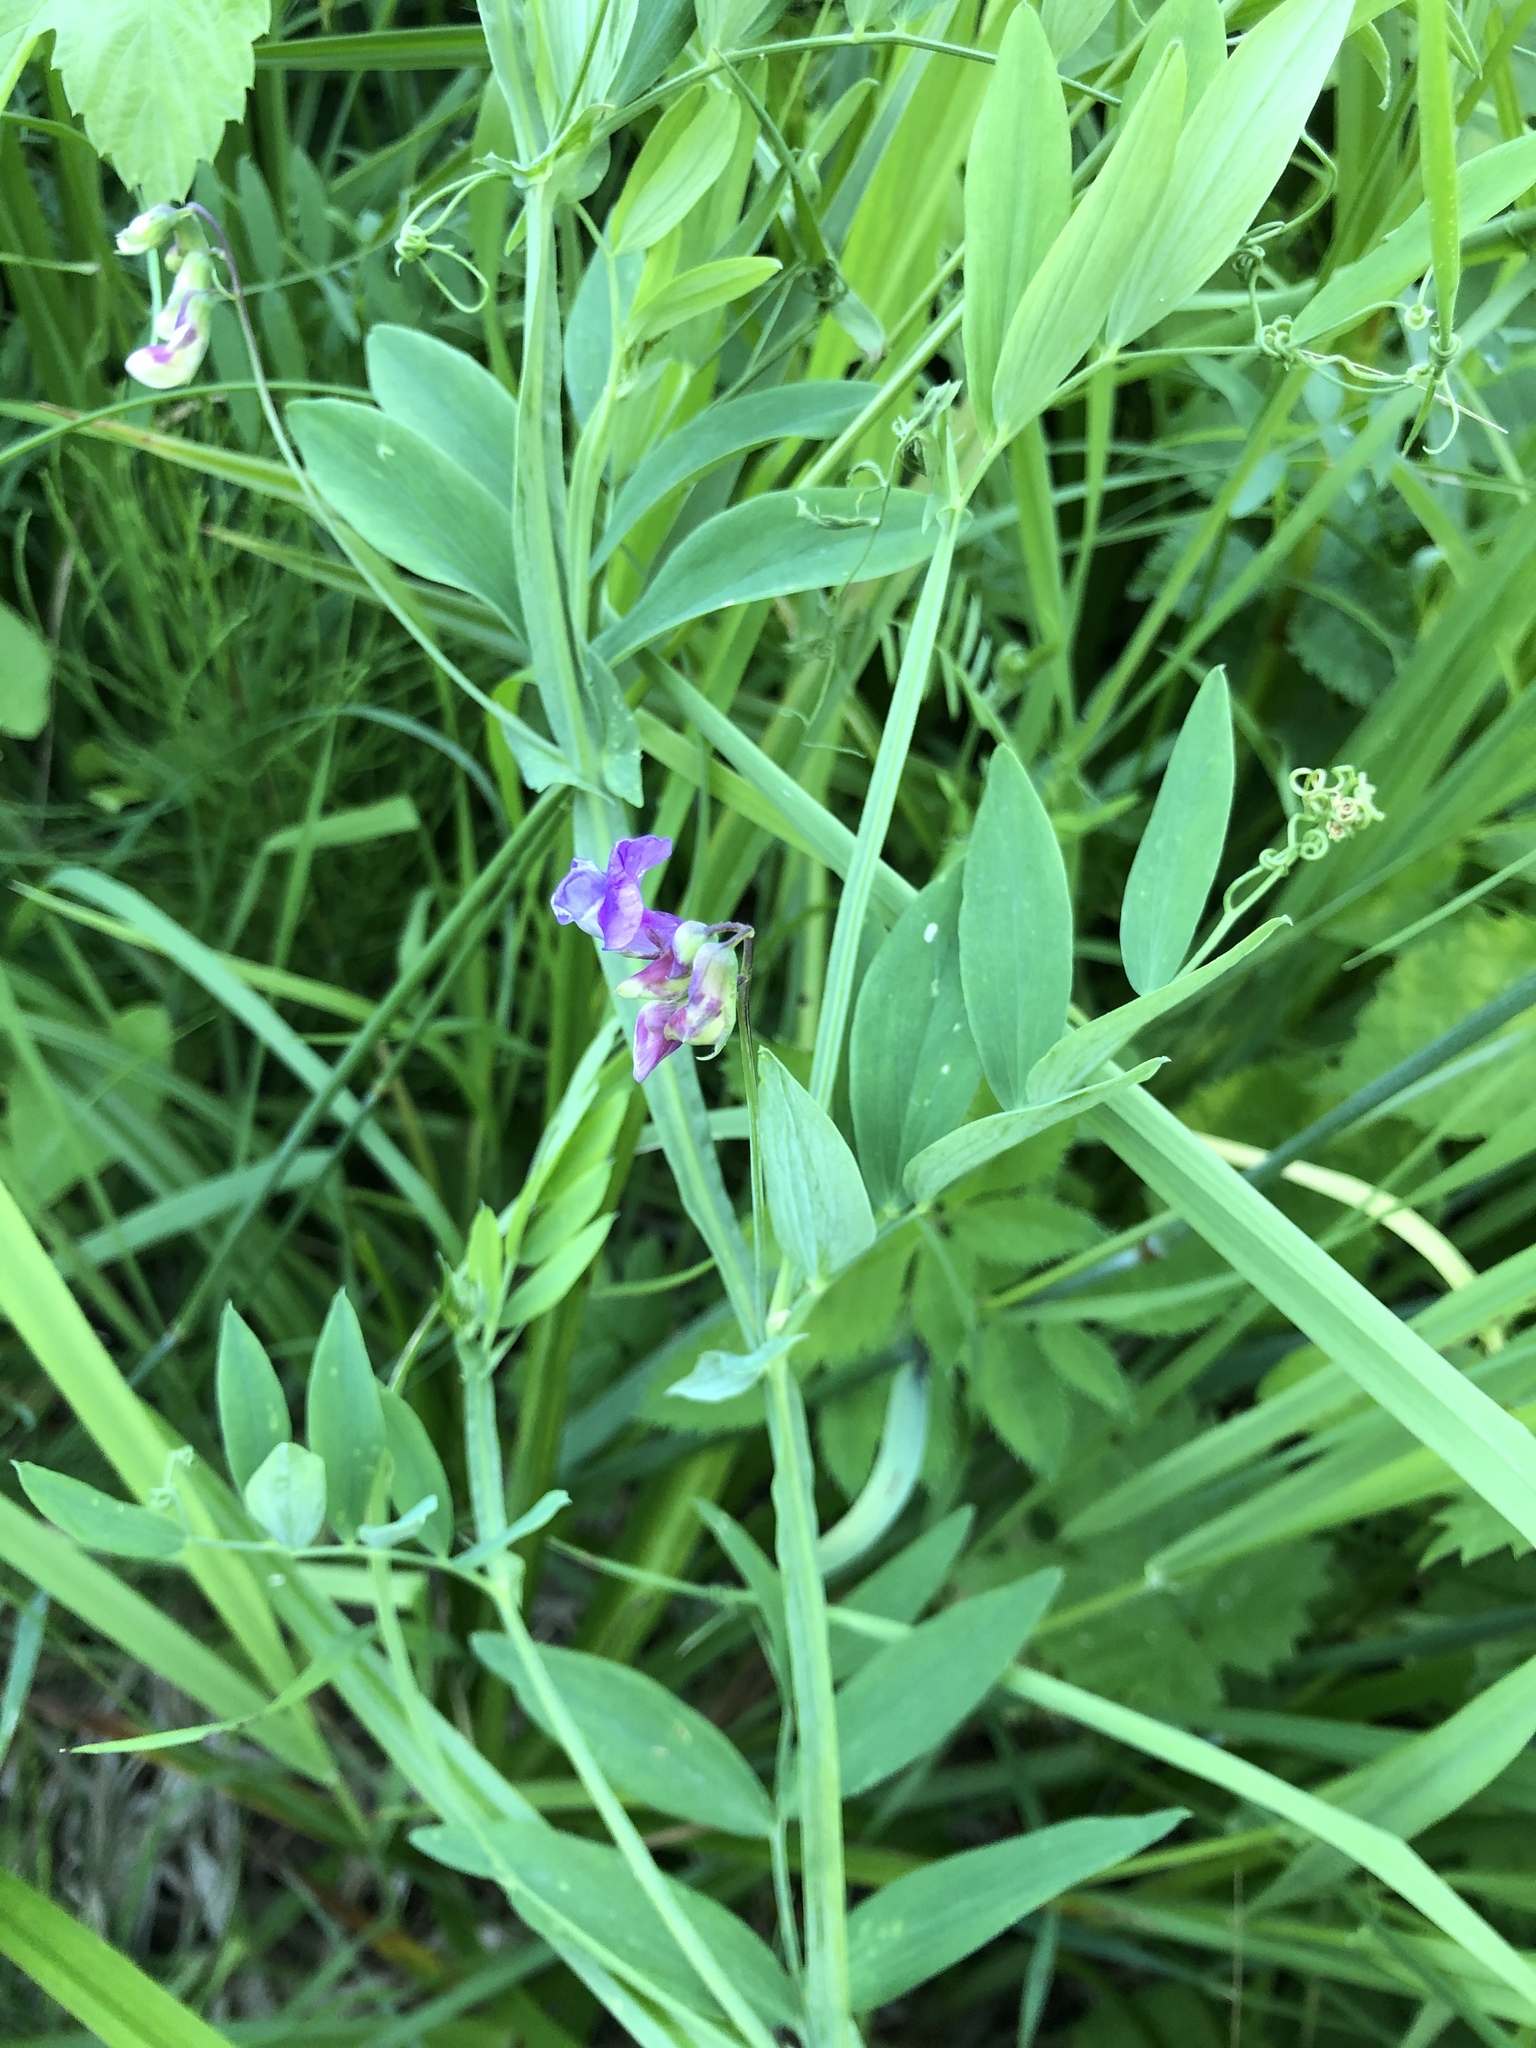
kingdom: Plantae
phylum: Tracheophyta
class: Magnoliopsida
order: Fabales
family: Fabaceae
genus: Lathyrus
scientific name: Lathyrus palustris
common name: Marsh pea
